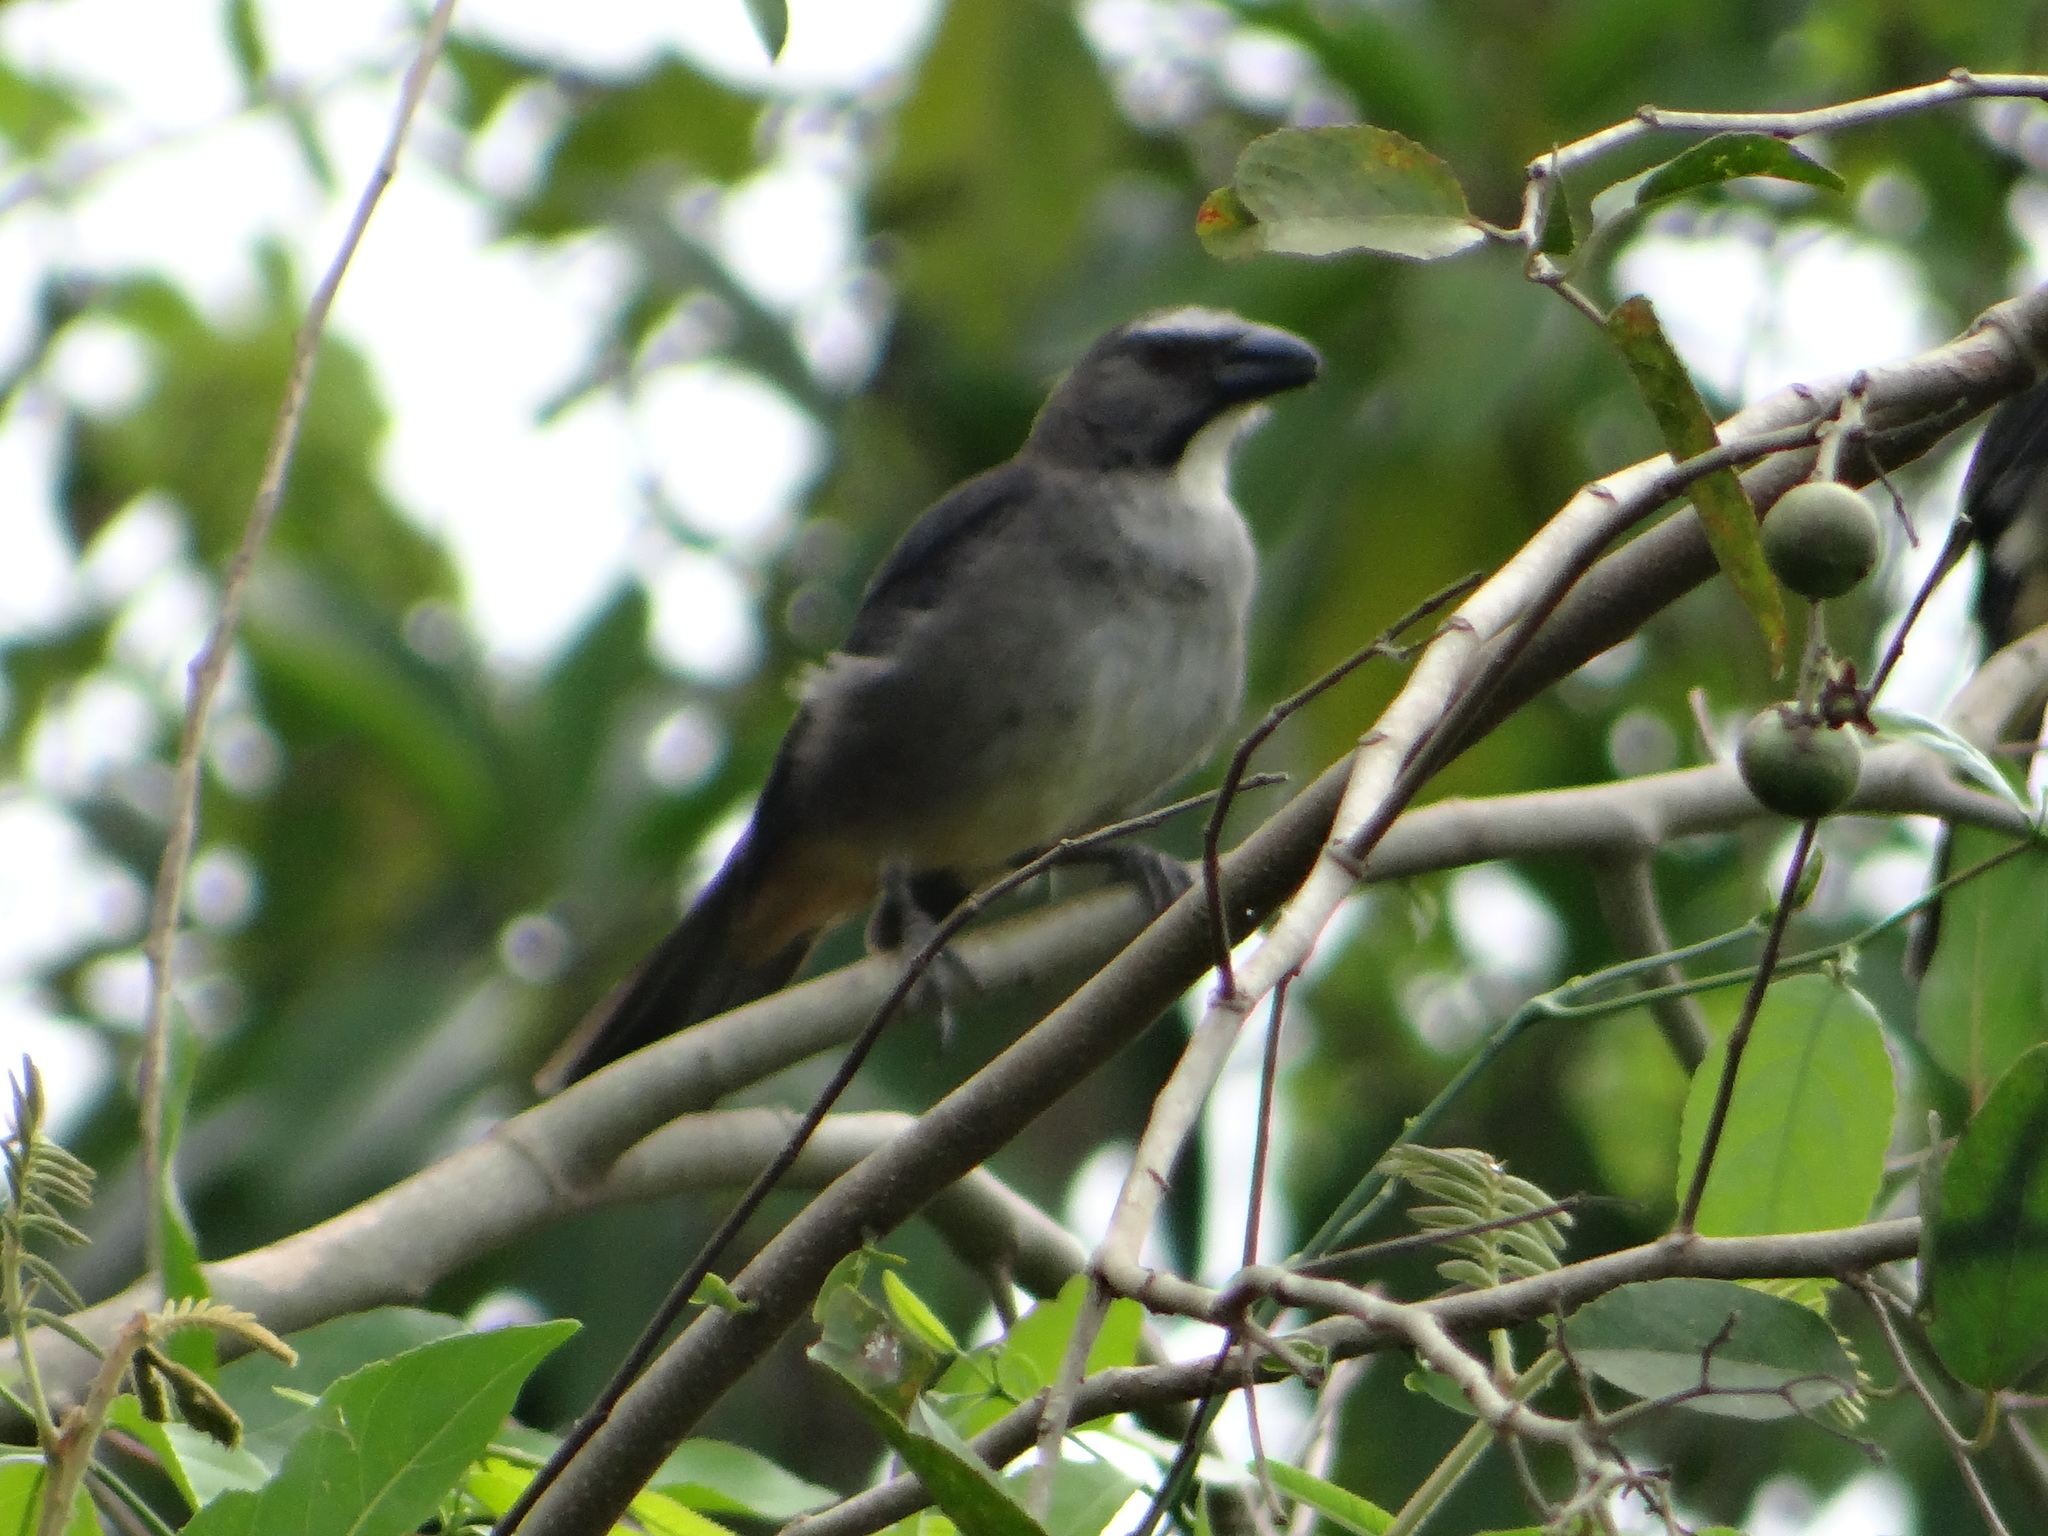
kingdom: Animalia
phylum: Chordata
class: Aves
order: Passeriformes
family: Thraupidae
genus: Saltator
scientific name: Saltator coerulescens
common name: Grayish saltator
